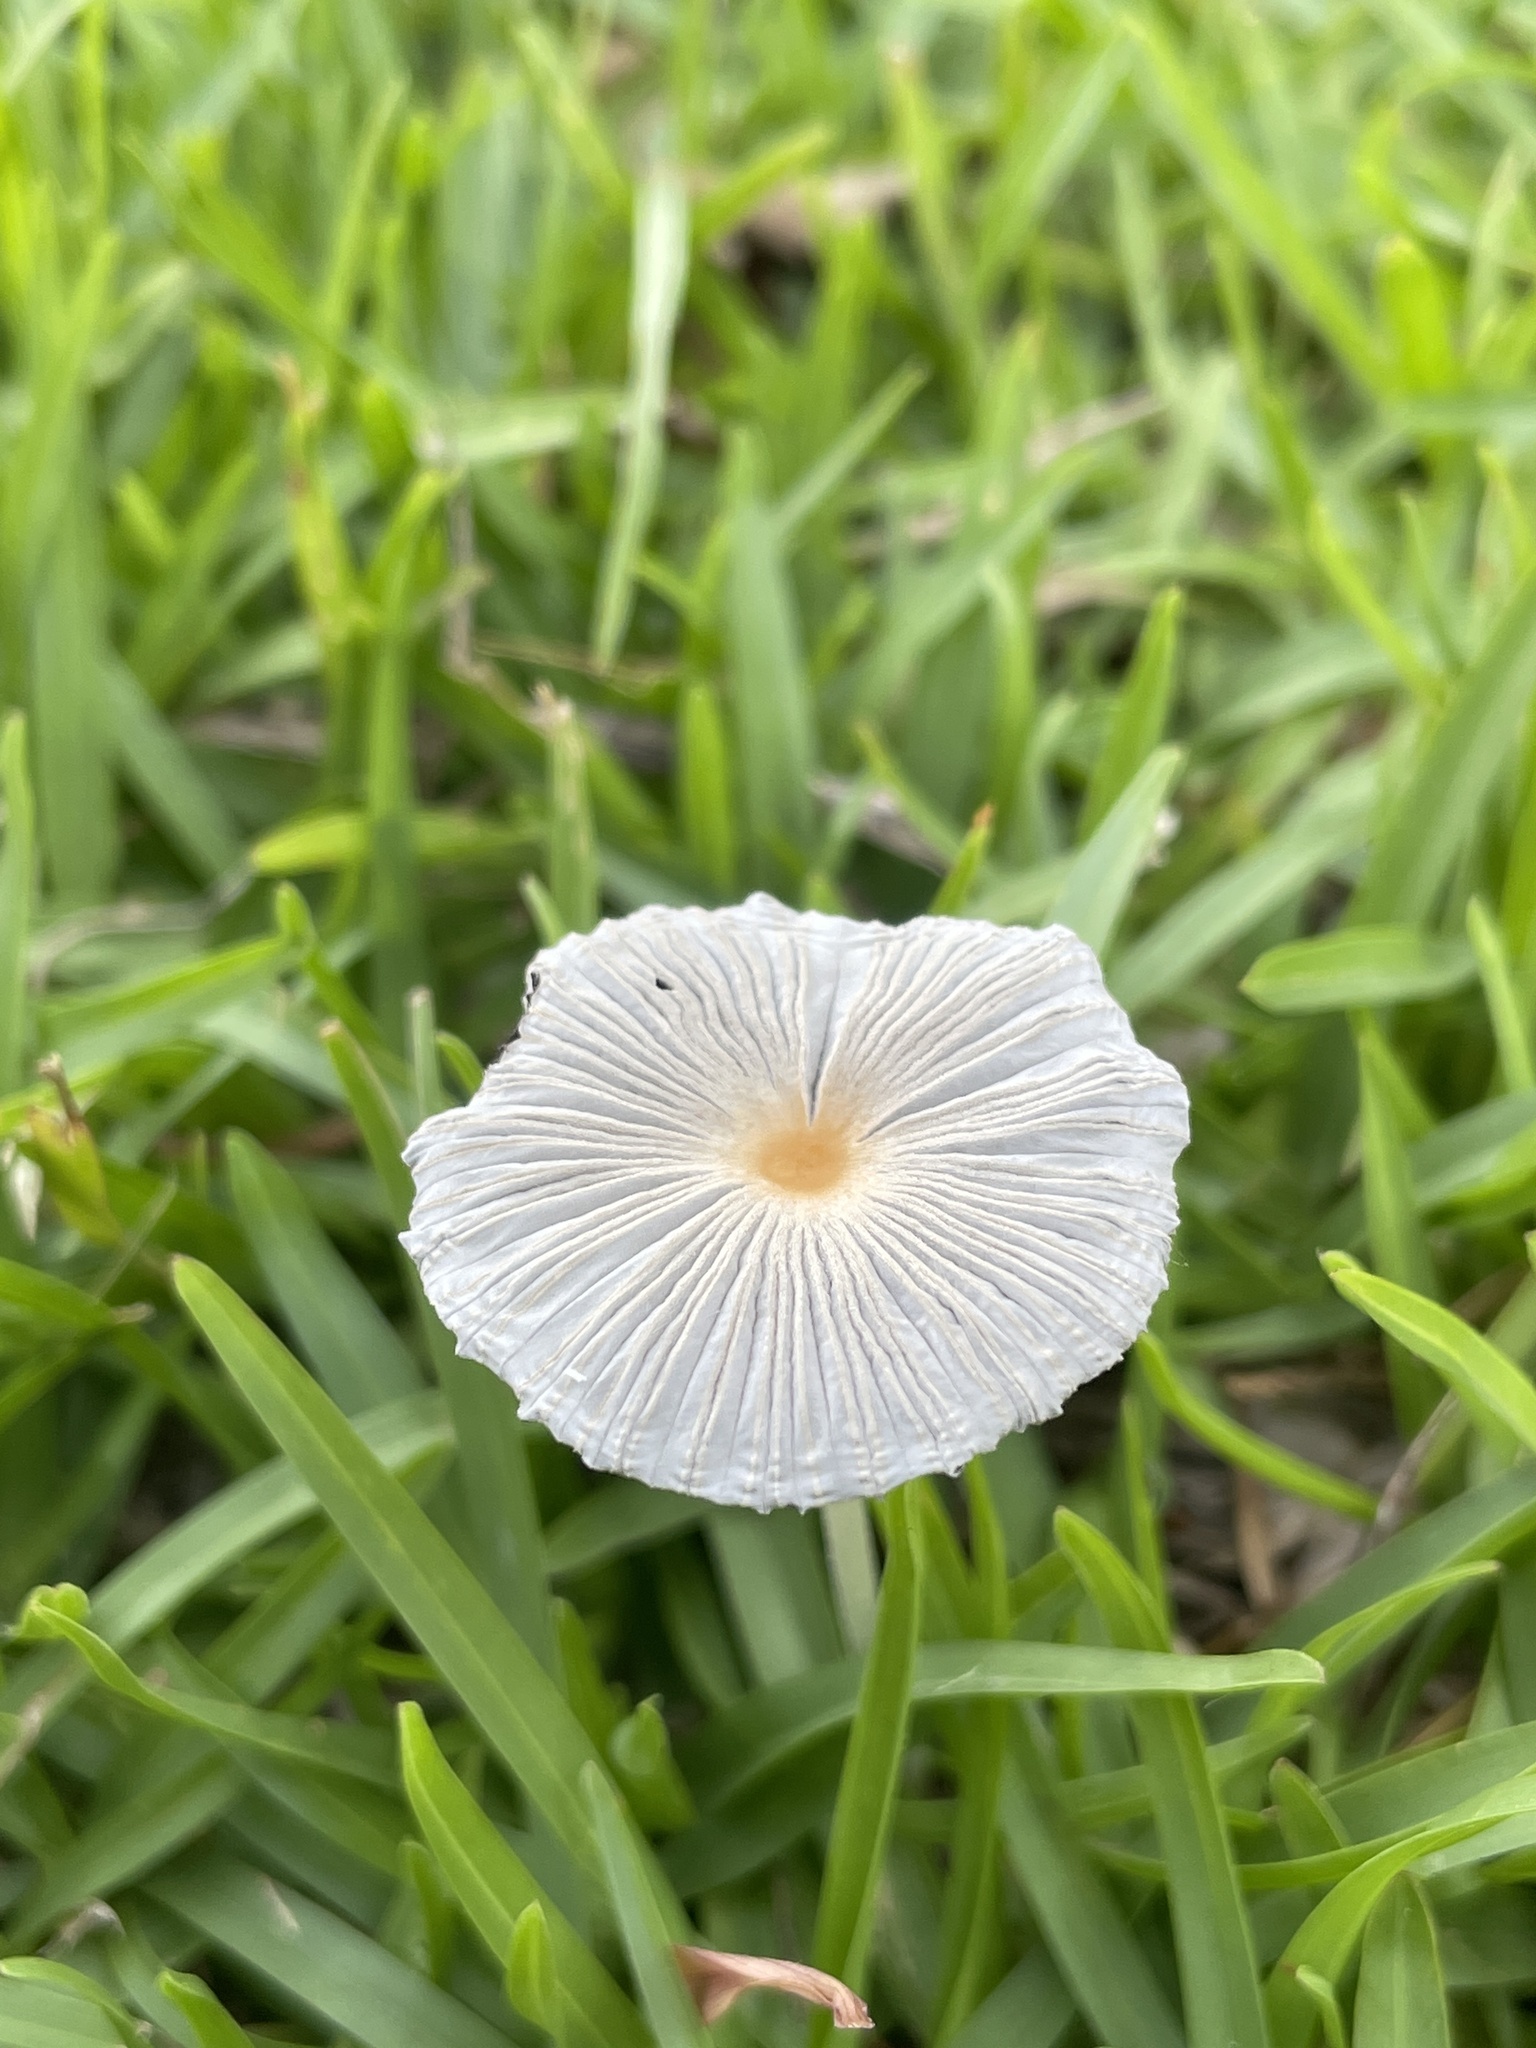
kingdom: Fungi
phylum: Basidiomycota
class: Agaricomycetes
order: Agaricales
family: Psathyrellaceae
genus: Parasola
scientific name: Parasola plicatilis
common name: Pleated inkcap
